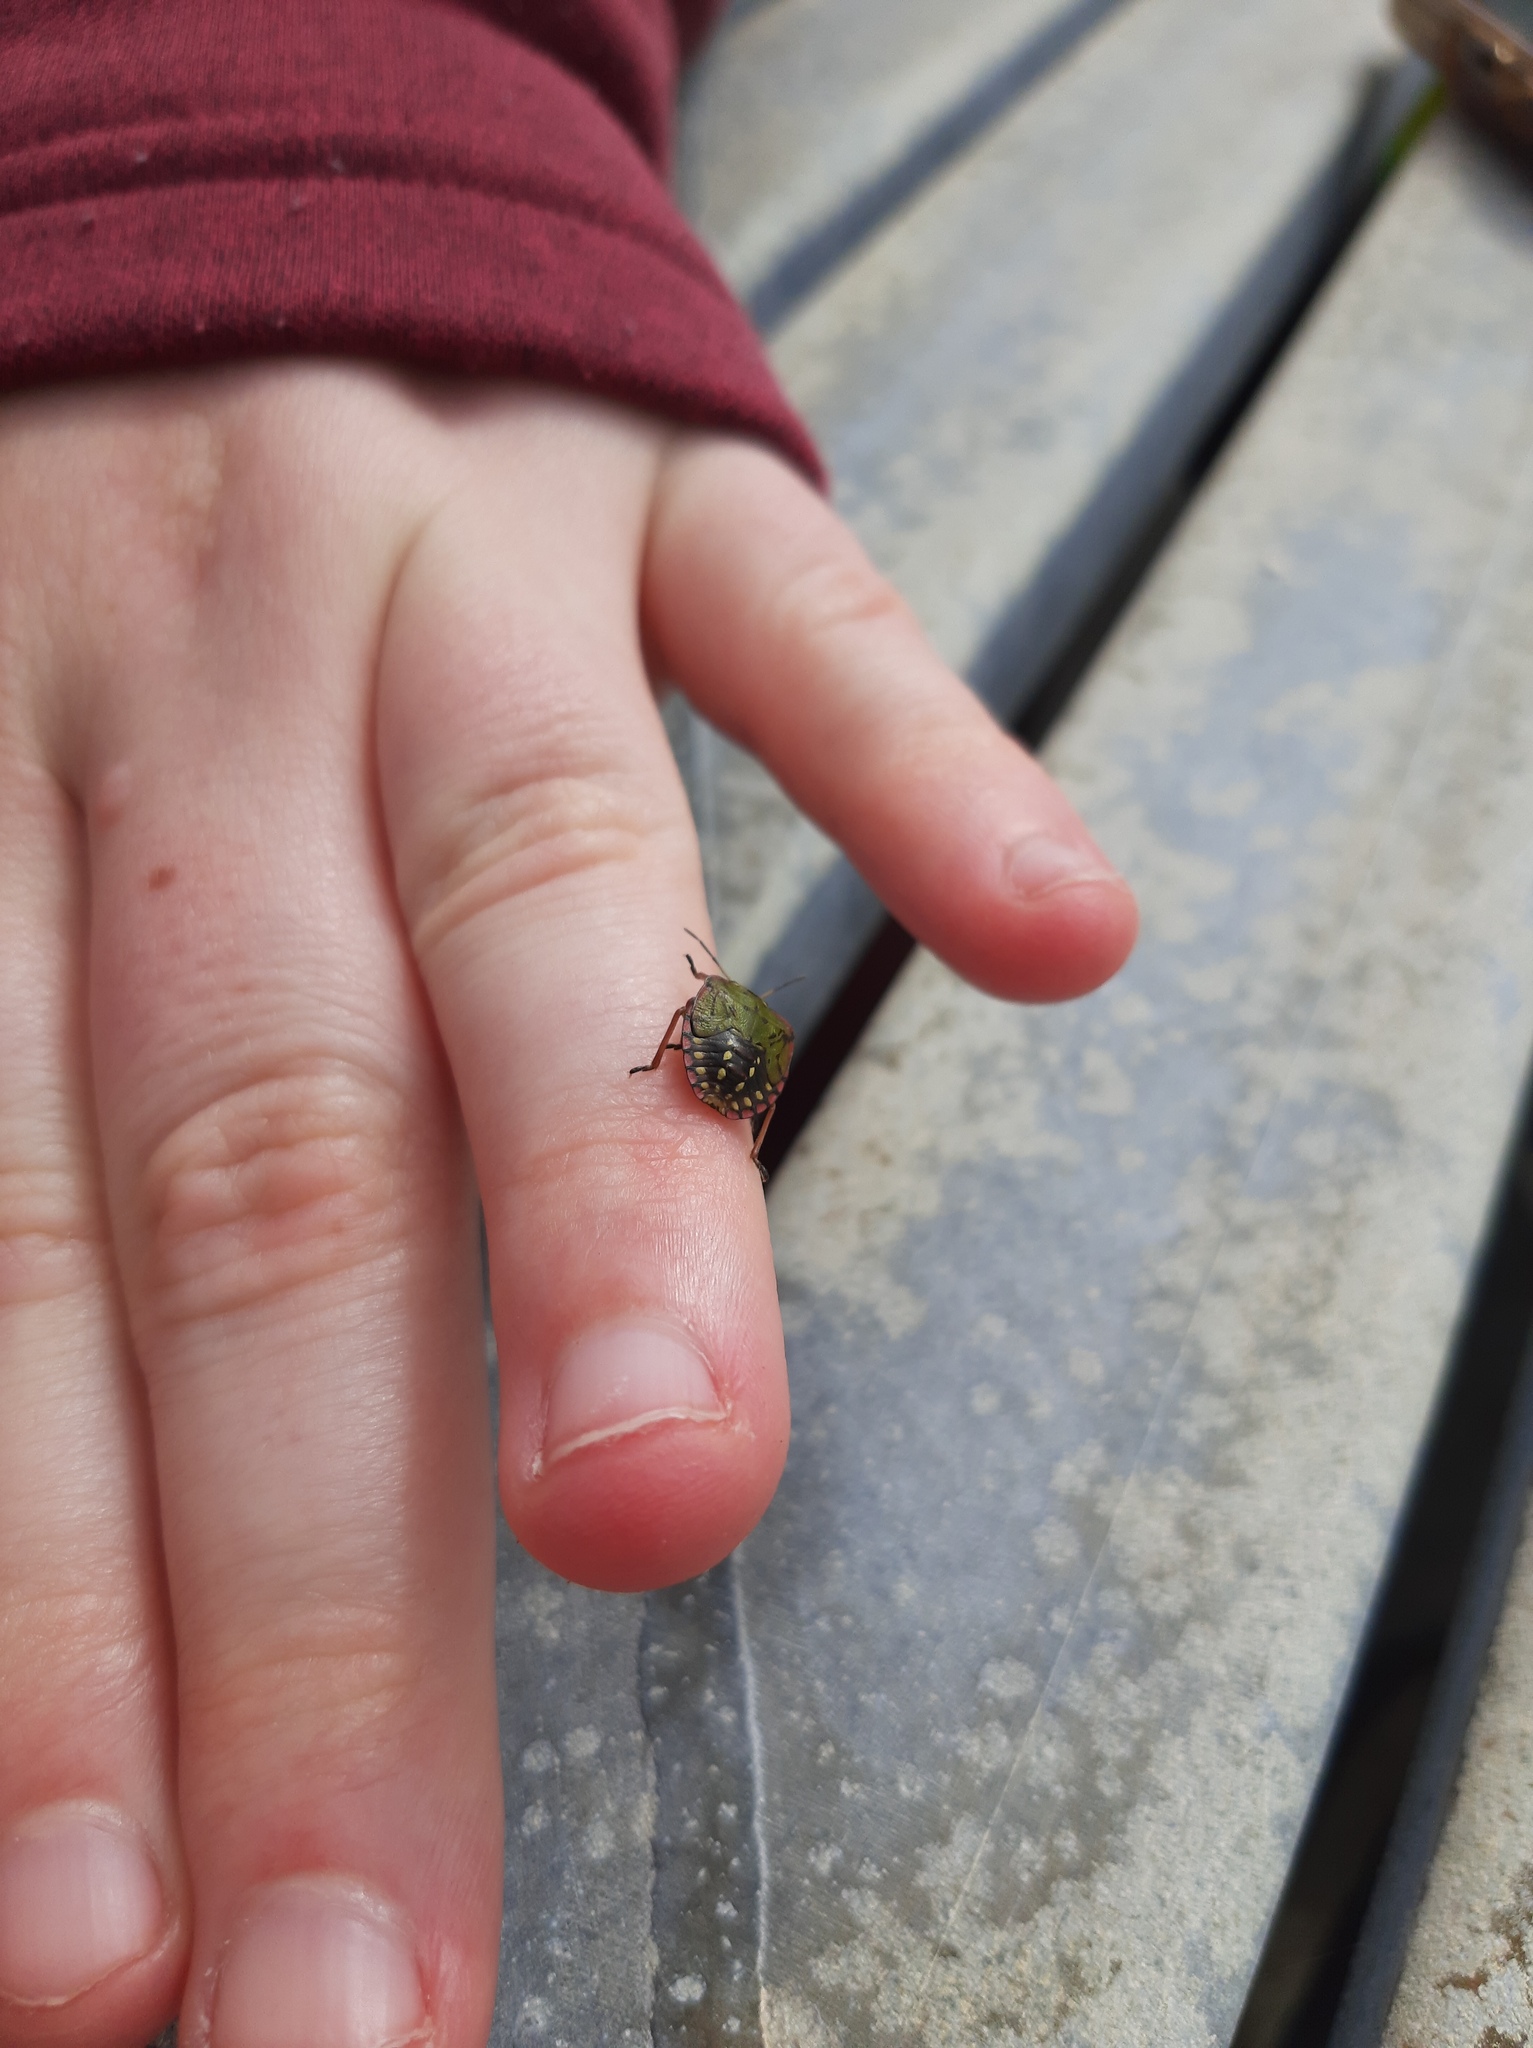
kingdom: Animalia
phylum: Arthropoda
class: Insecta
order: Hemiptera
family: Pentatomidae
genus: Nezara
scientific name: Nezara viridula
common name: Southern green stink bug
